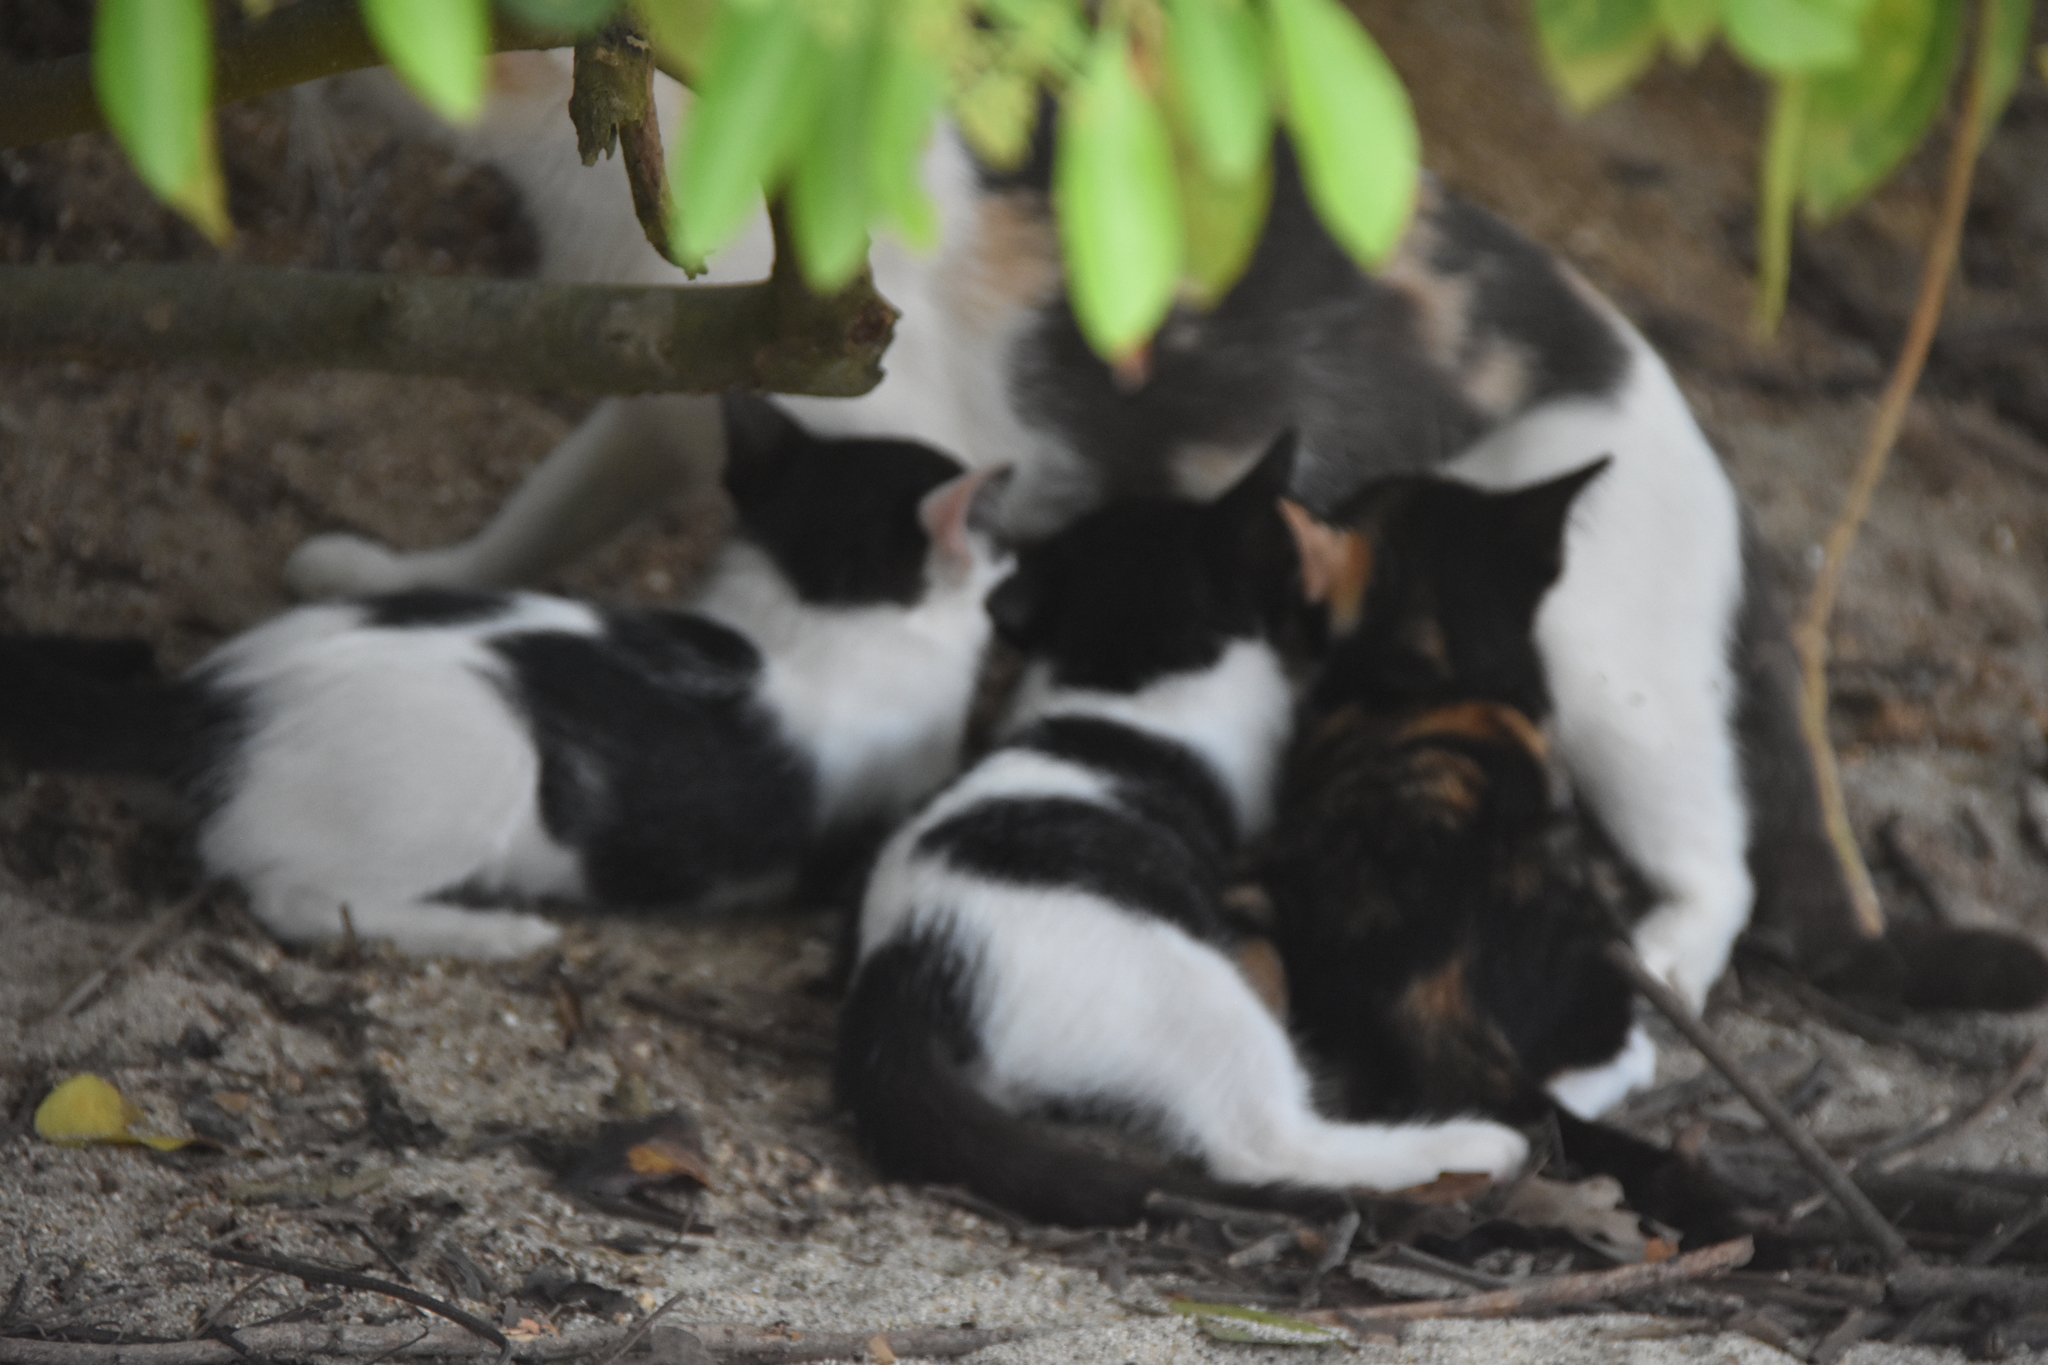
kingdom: Animalia
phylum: Chordata
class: Mammalia
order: Carnivora
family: Felidae
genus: Felis
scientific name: Felis catus
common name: Domestic cat
